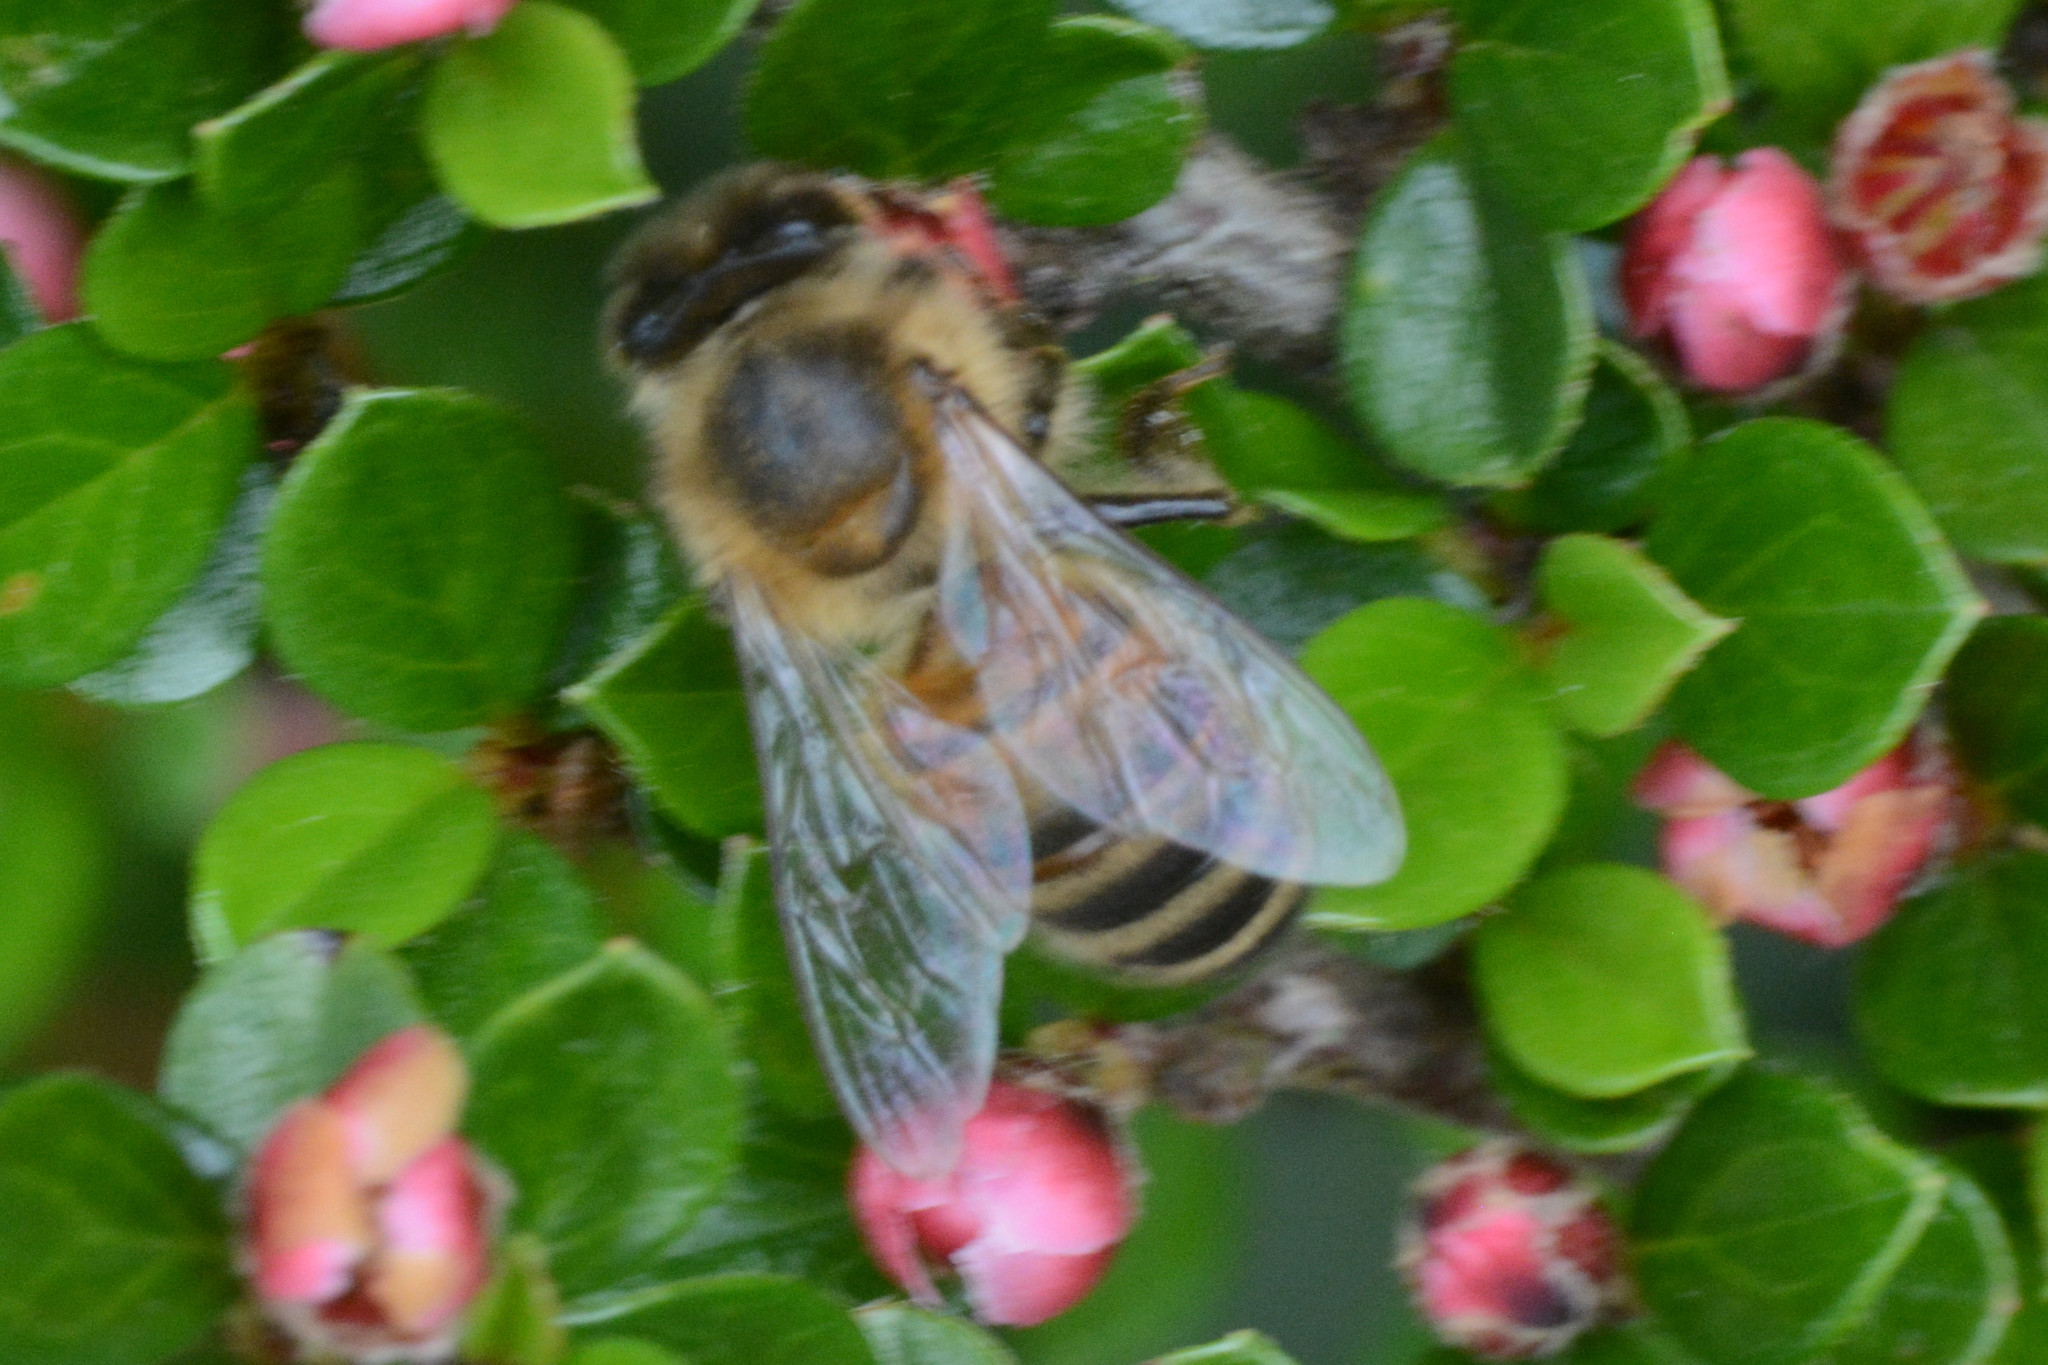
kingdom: Animalia
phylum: Arthropoda
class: Insecta
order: Hymenoptera
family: Apidae
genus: Apis
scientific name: Apis mellifera
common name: Honey bee
